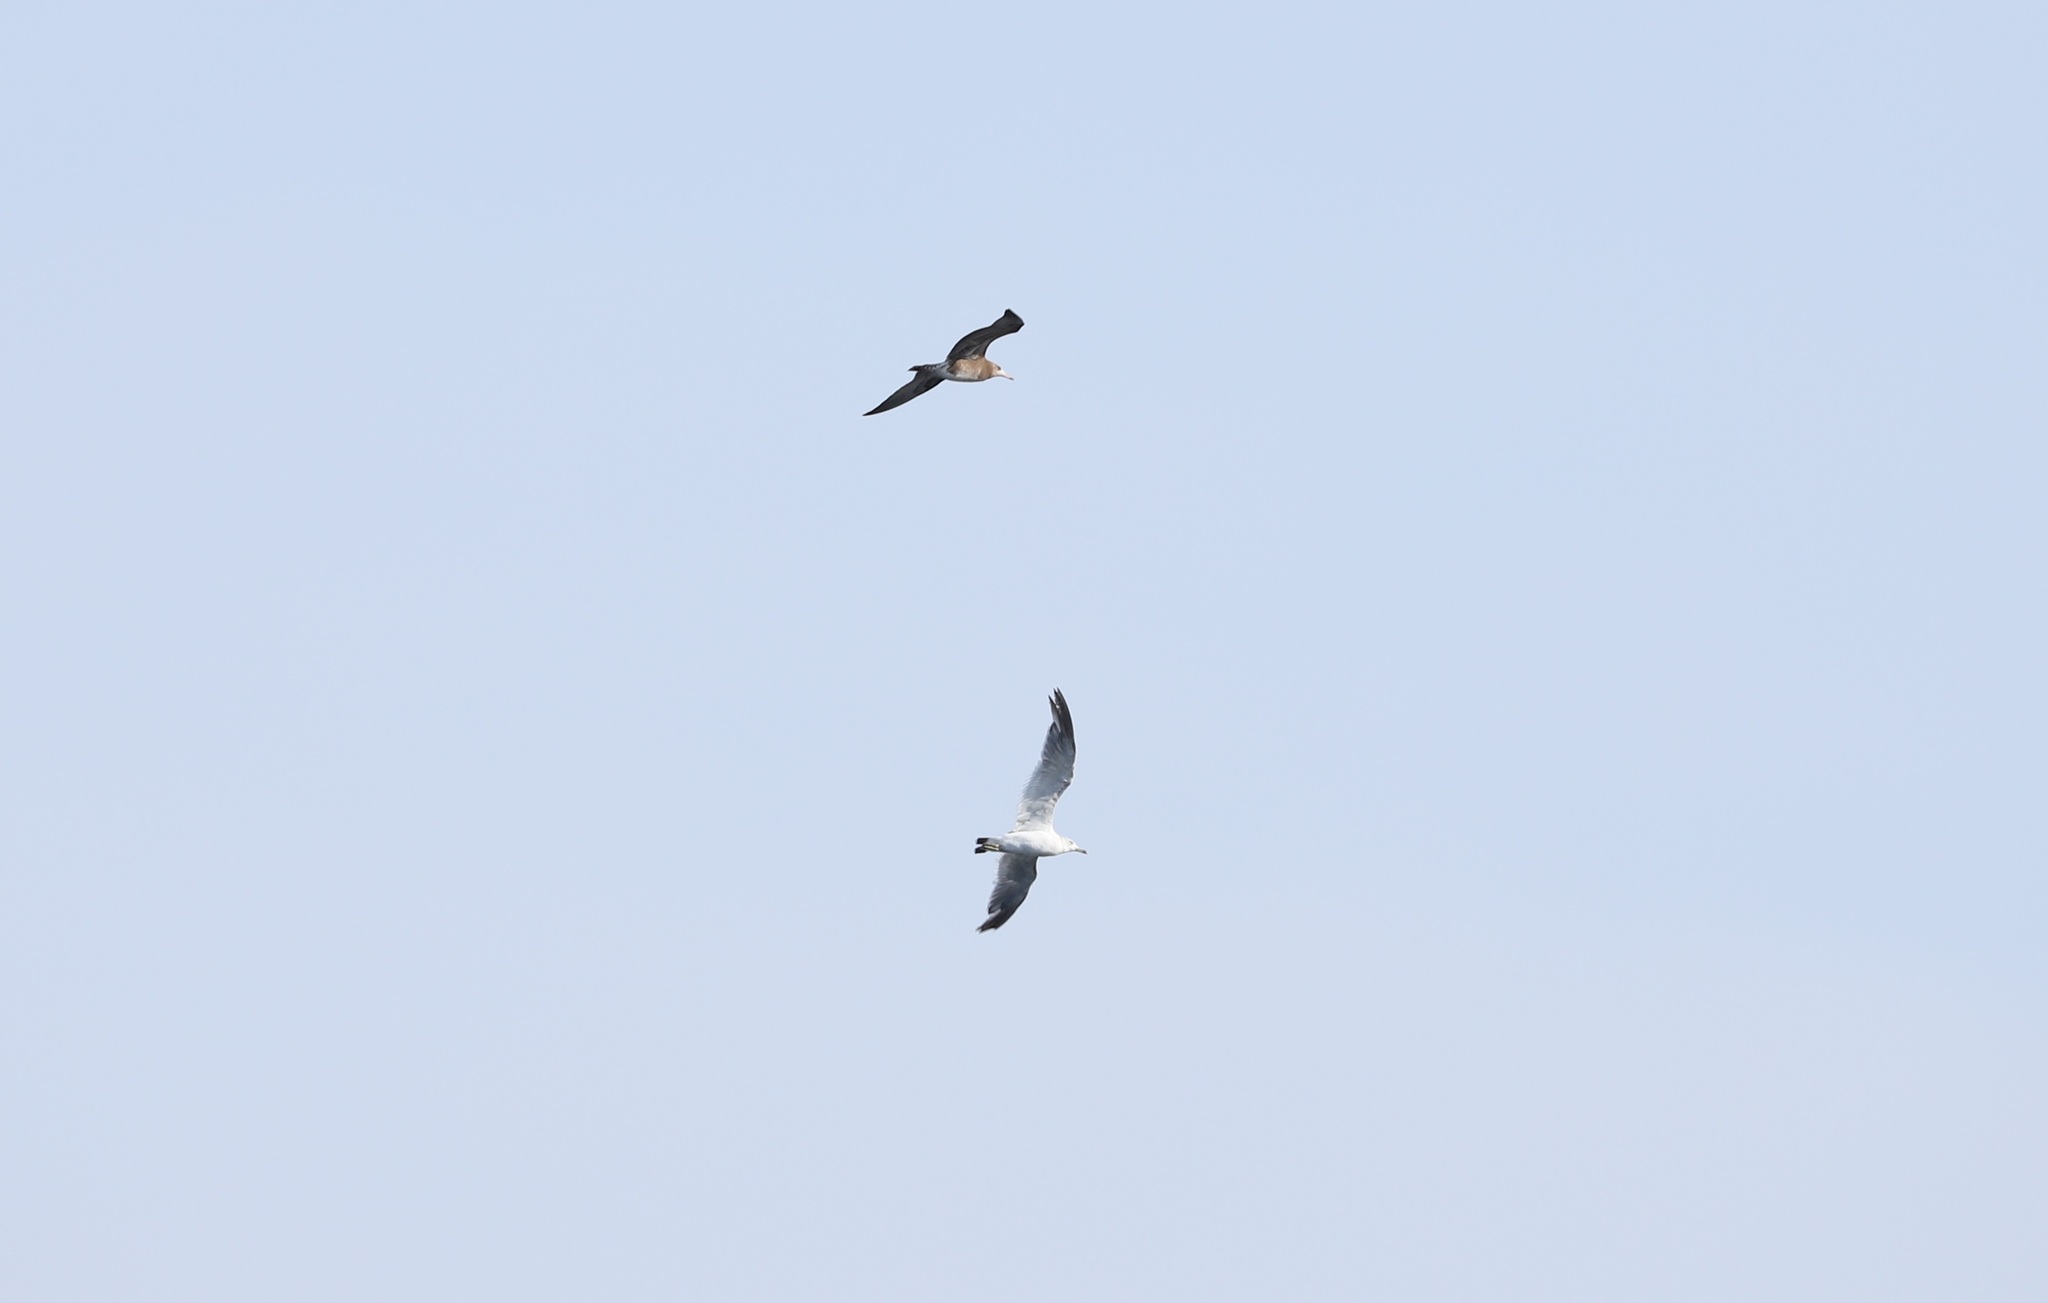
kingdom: Animalia
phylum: Chordata
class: Aves
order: Charadriiformes
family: Laridae
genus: Larus
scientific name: Larus crassirostris
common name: Black-tailed gull
